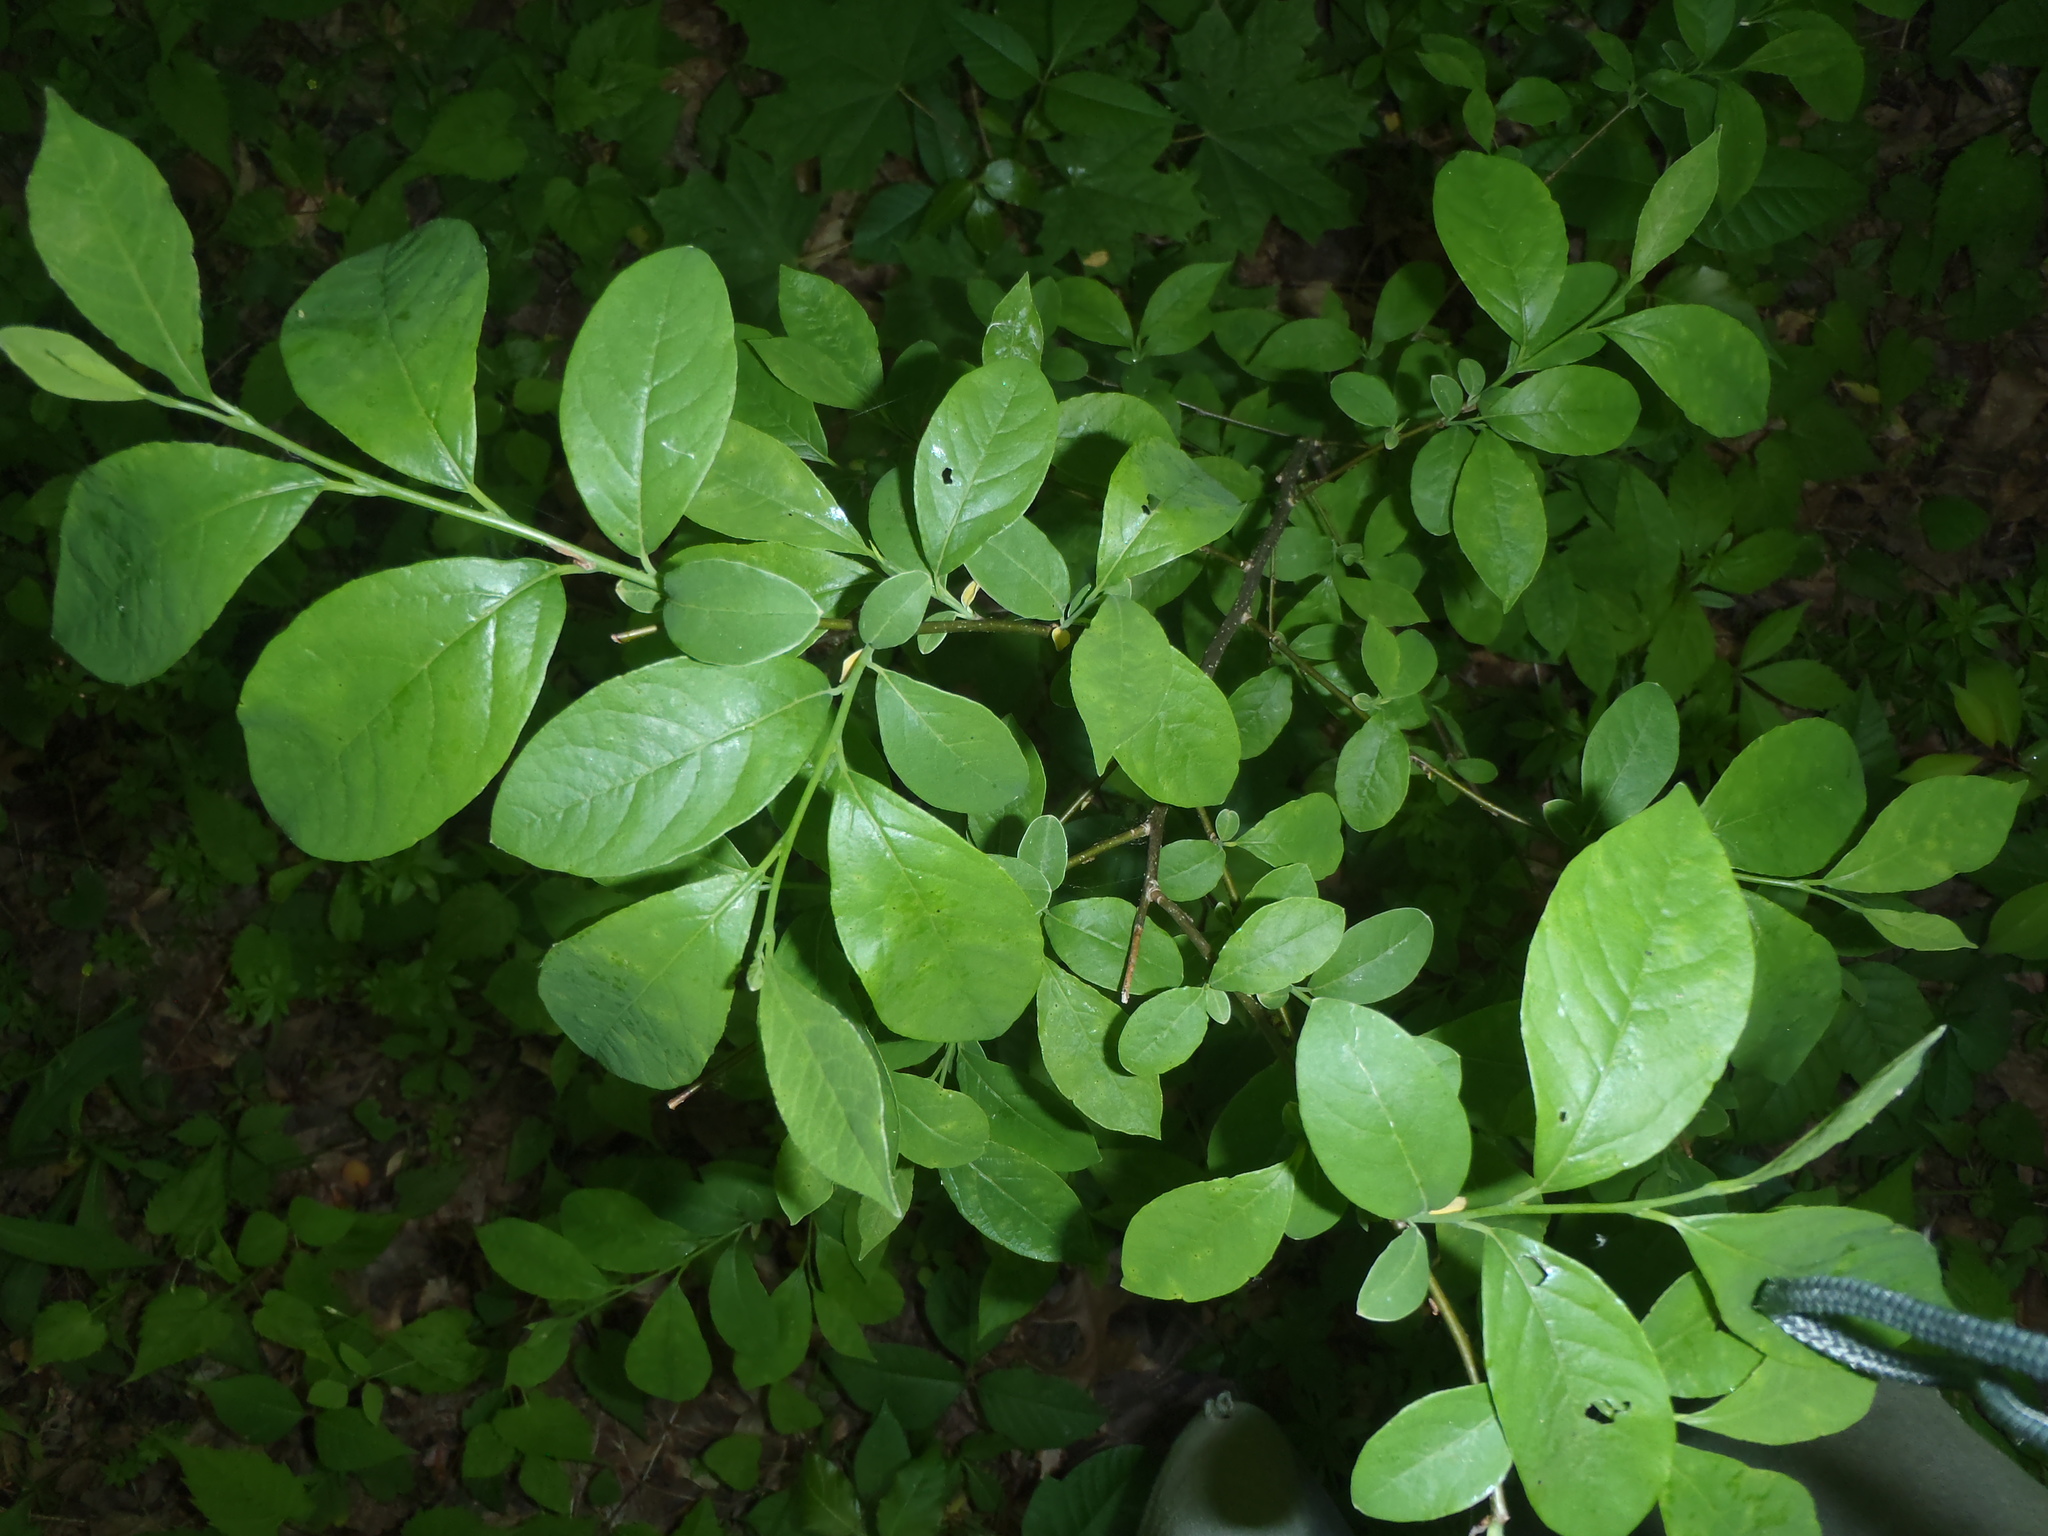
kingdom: Plantae
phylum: Tracheophyta
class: Magnoliopsida
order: Laurales
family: Lauraceae
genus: Lindera
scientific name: Lindera benzoin
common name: Spicebush
